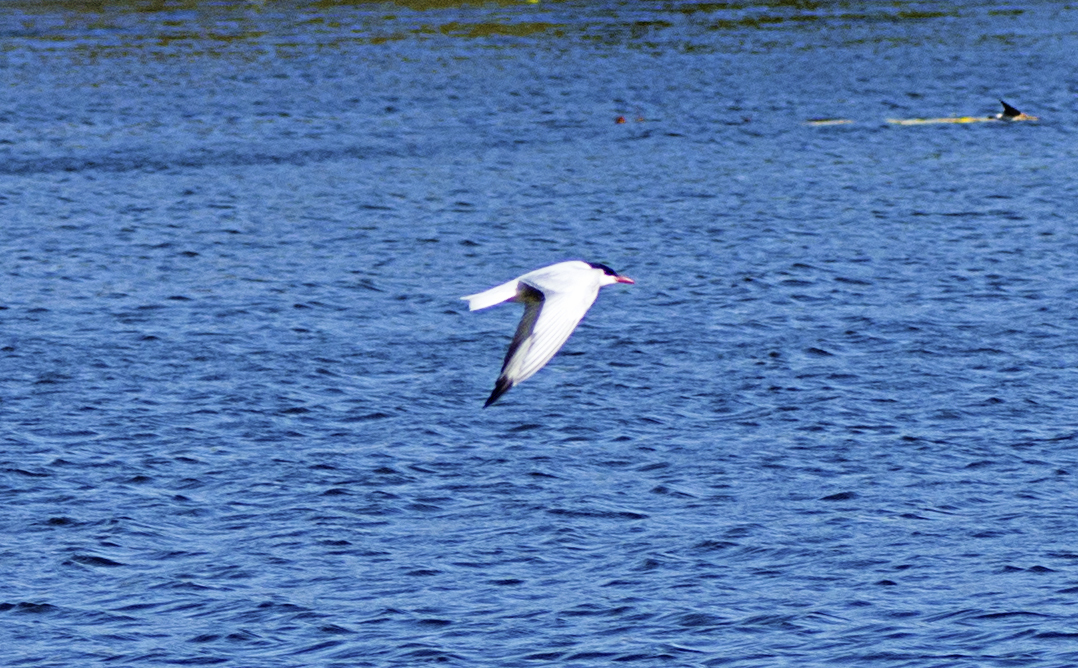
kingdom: Animalia
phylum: Chordata
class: Aves
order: Charadriiformes
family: Laridae
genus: Chlidonias
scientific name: Chlidonias hybrida
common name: Whiskered tern
